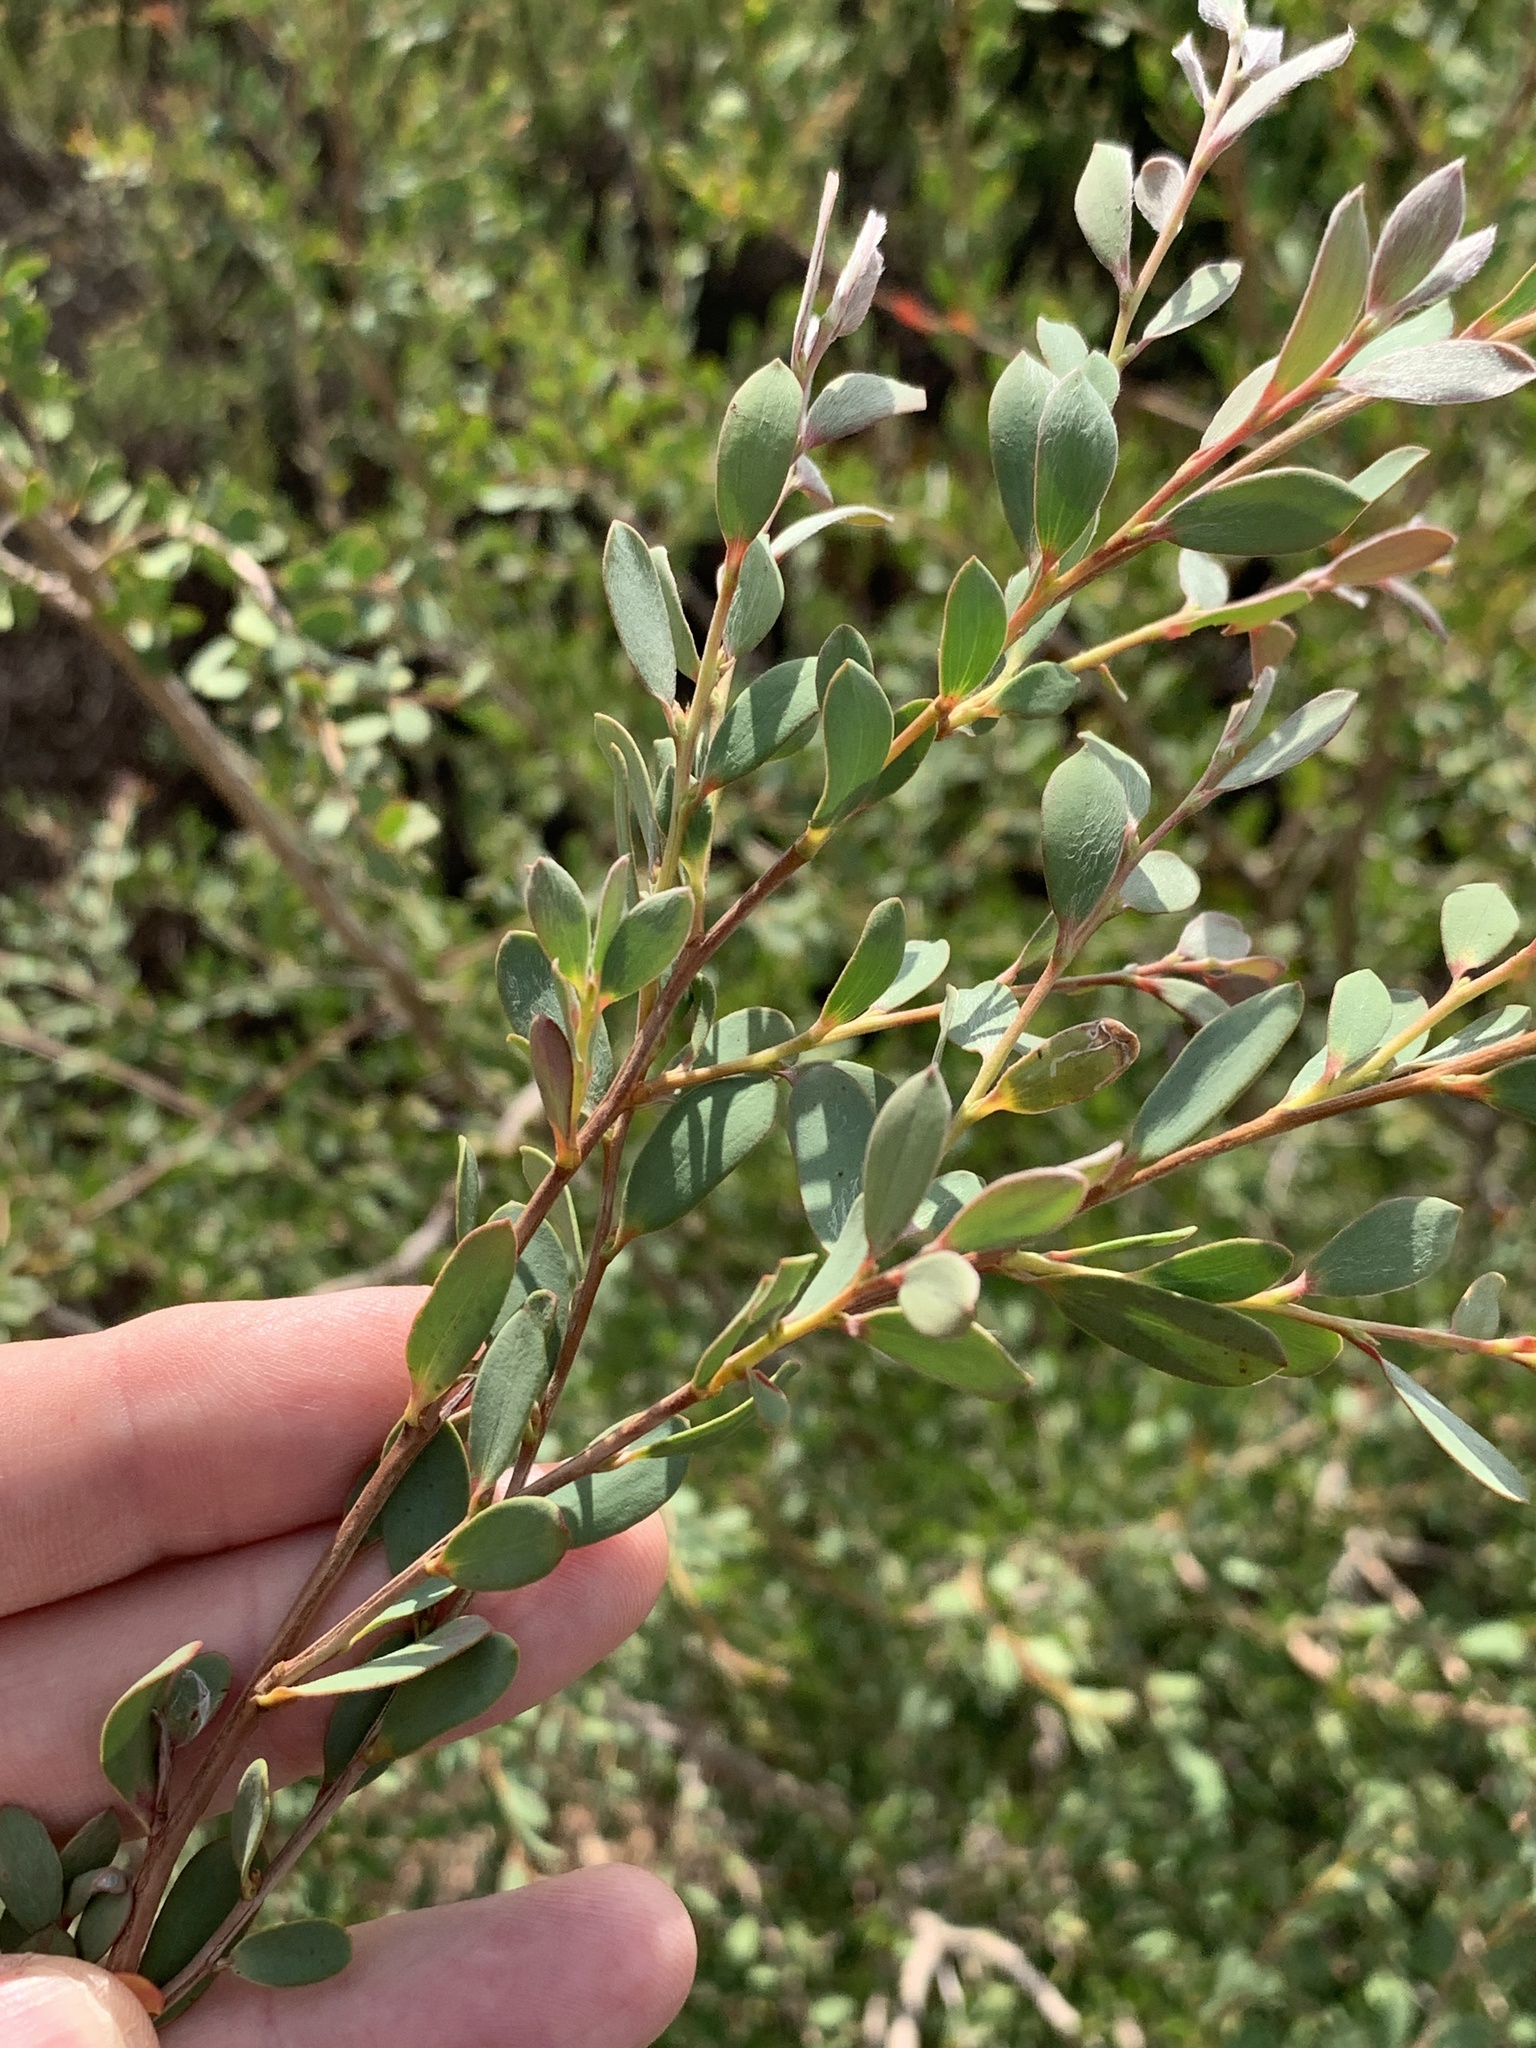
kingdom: Plantae
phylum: Tracheophyta
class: Magnoliopsida
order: Myrtales
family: Myrtaceae
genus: Leptospermum
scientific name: Leptospermum laevigatum
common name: Australian teatree
